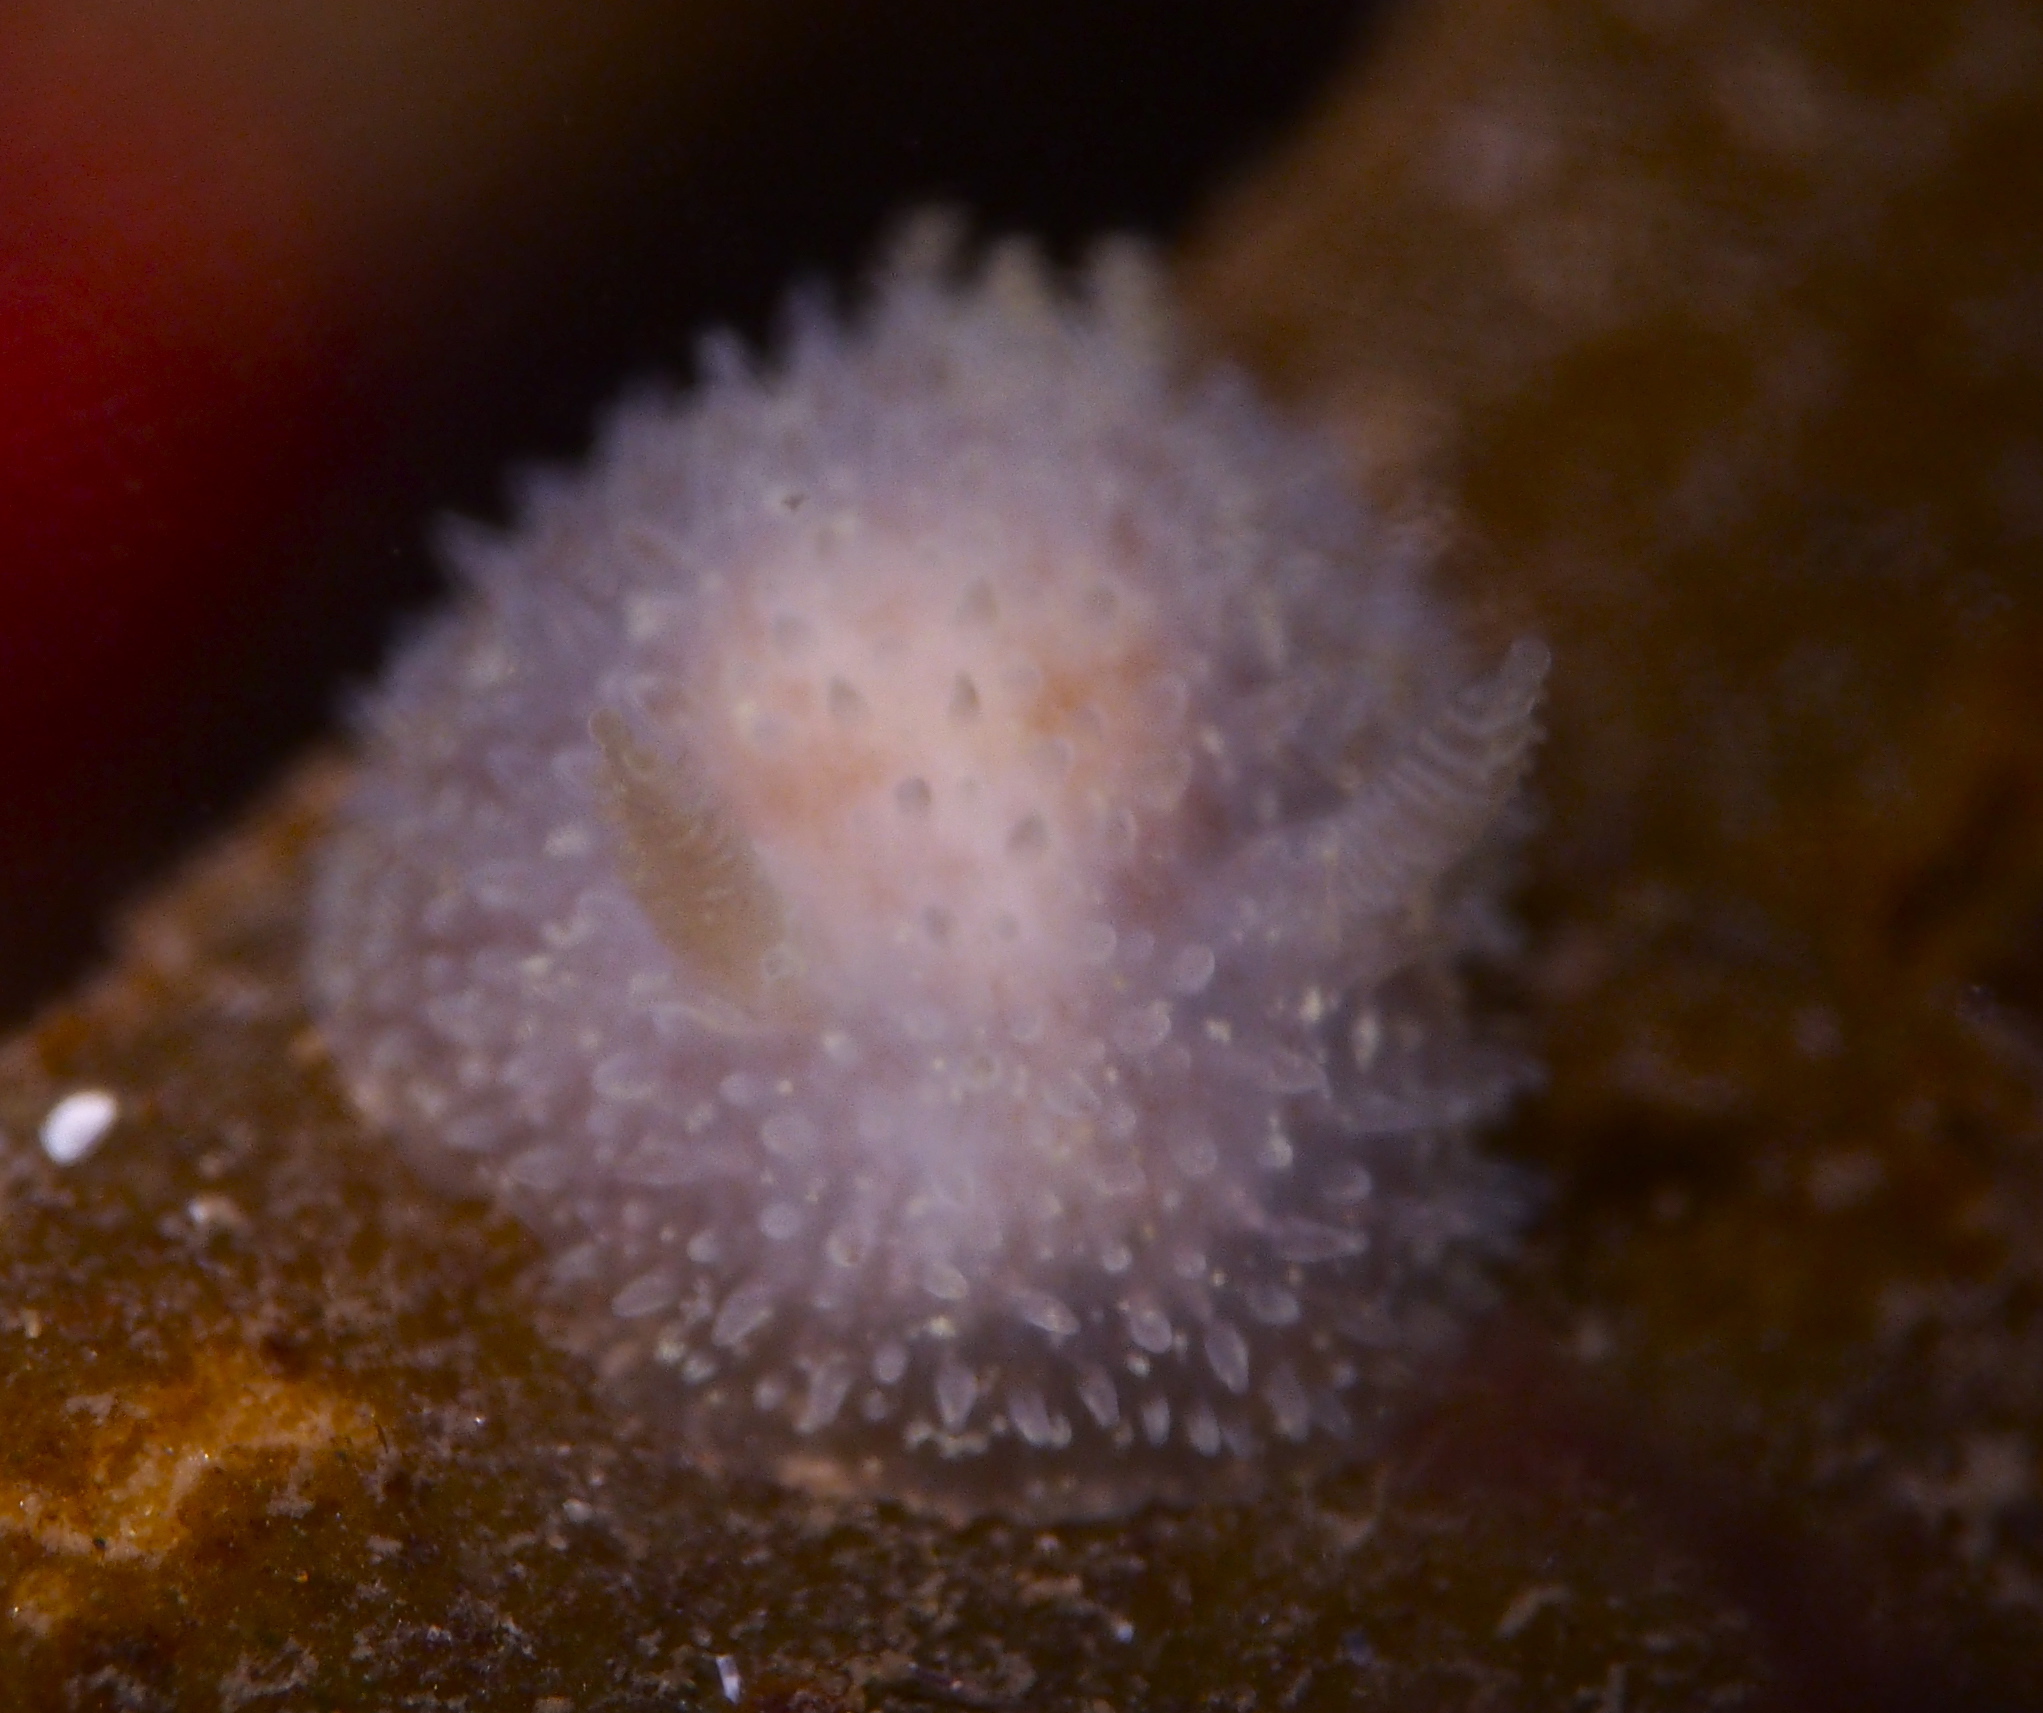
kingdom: Animalia
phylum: Mollusca
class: Gastropoda
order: Nudibranchia
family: Onchidorididae
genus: Acanthodoris
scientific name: Acanthodoris pilosa
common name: Hairy spiny doris
